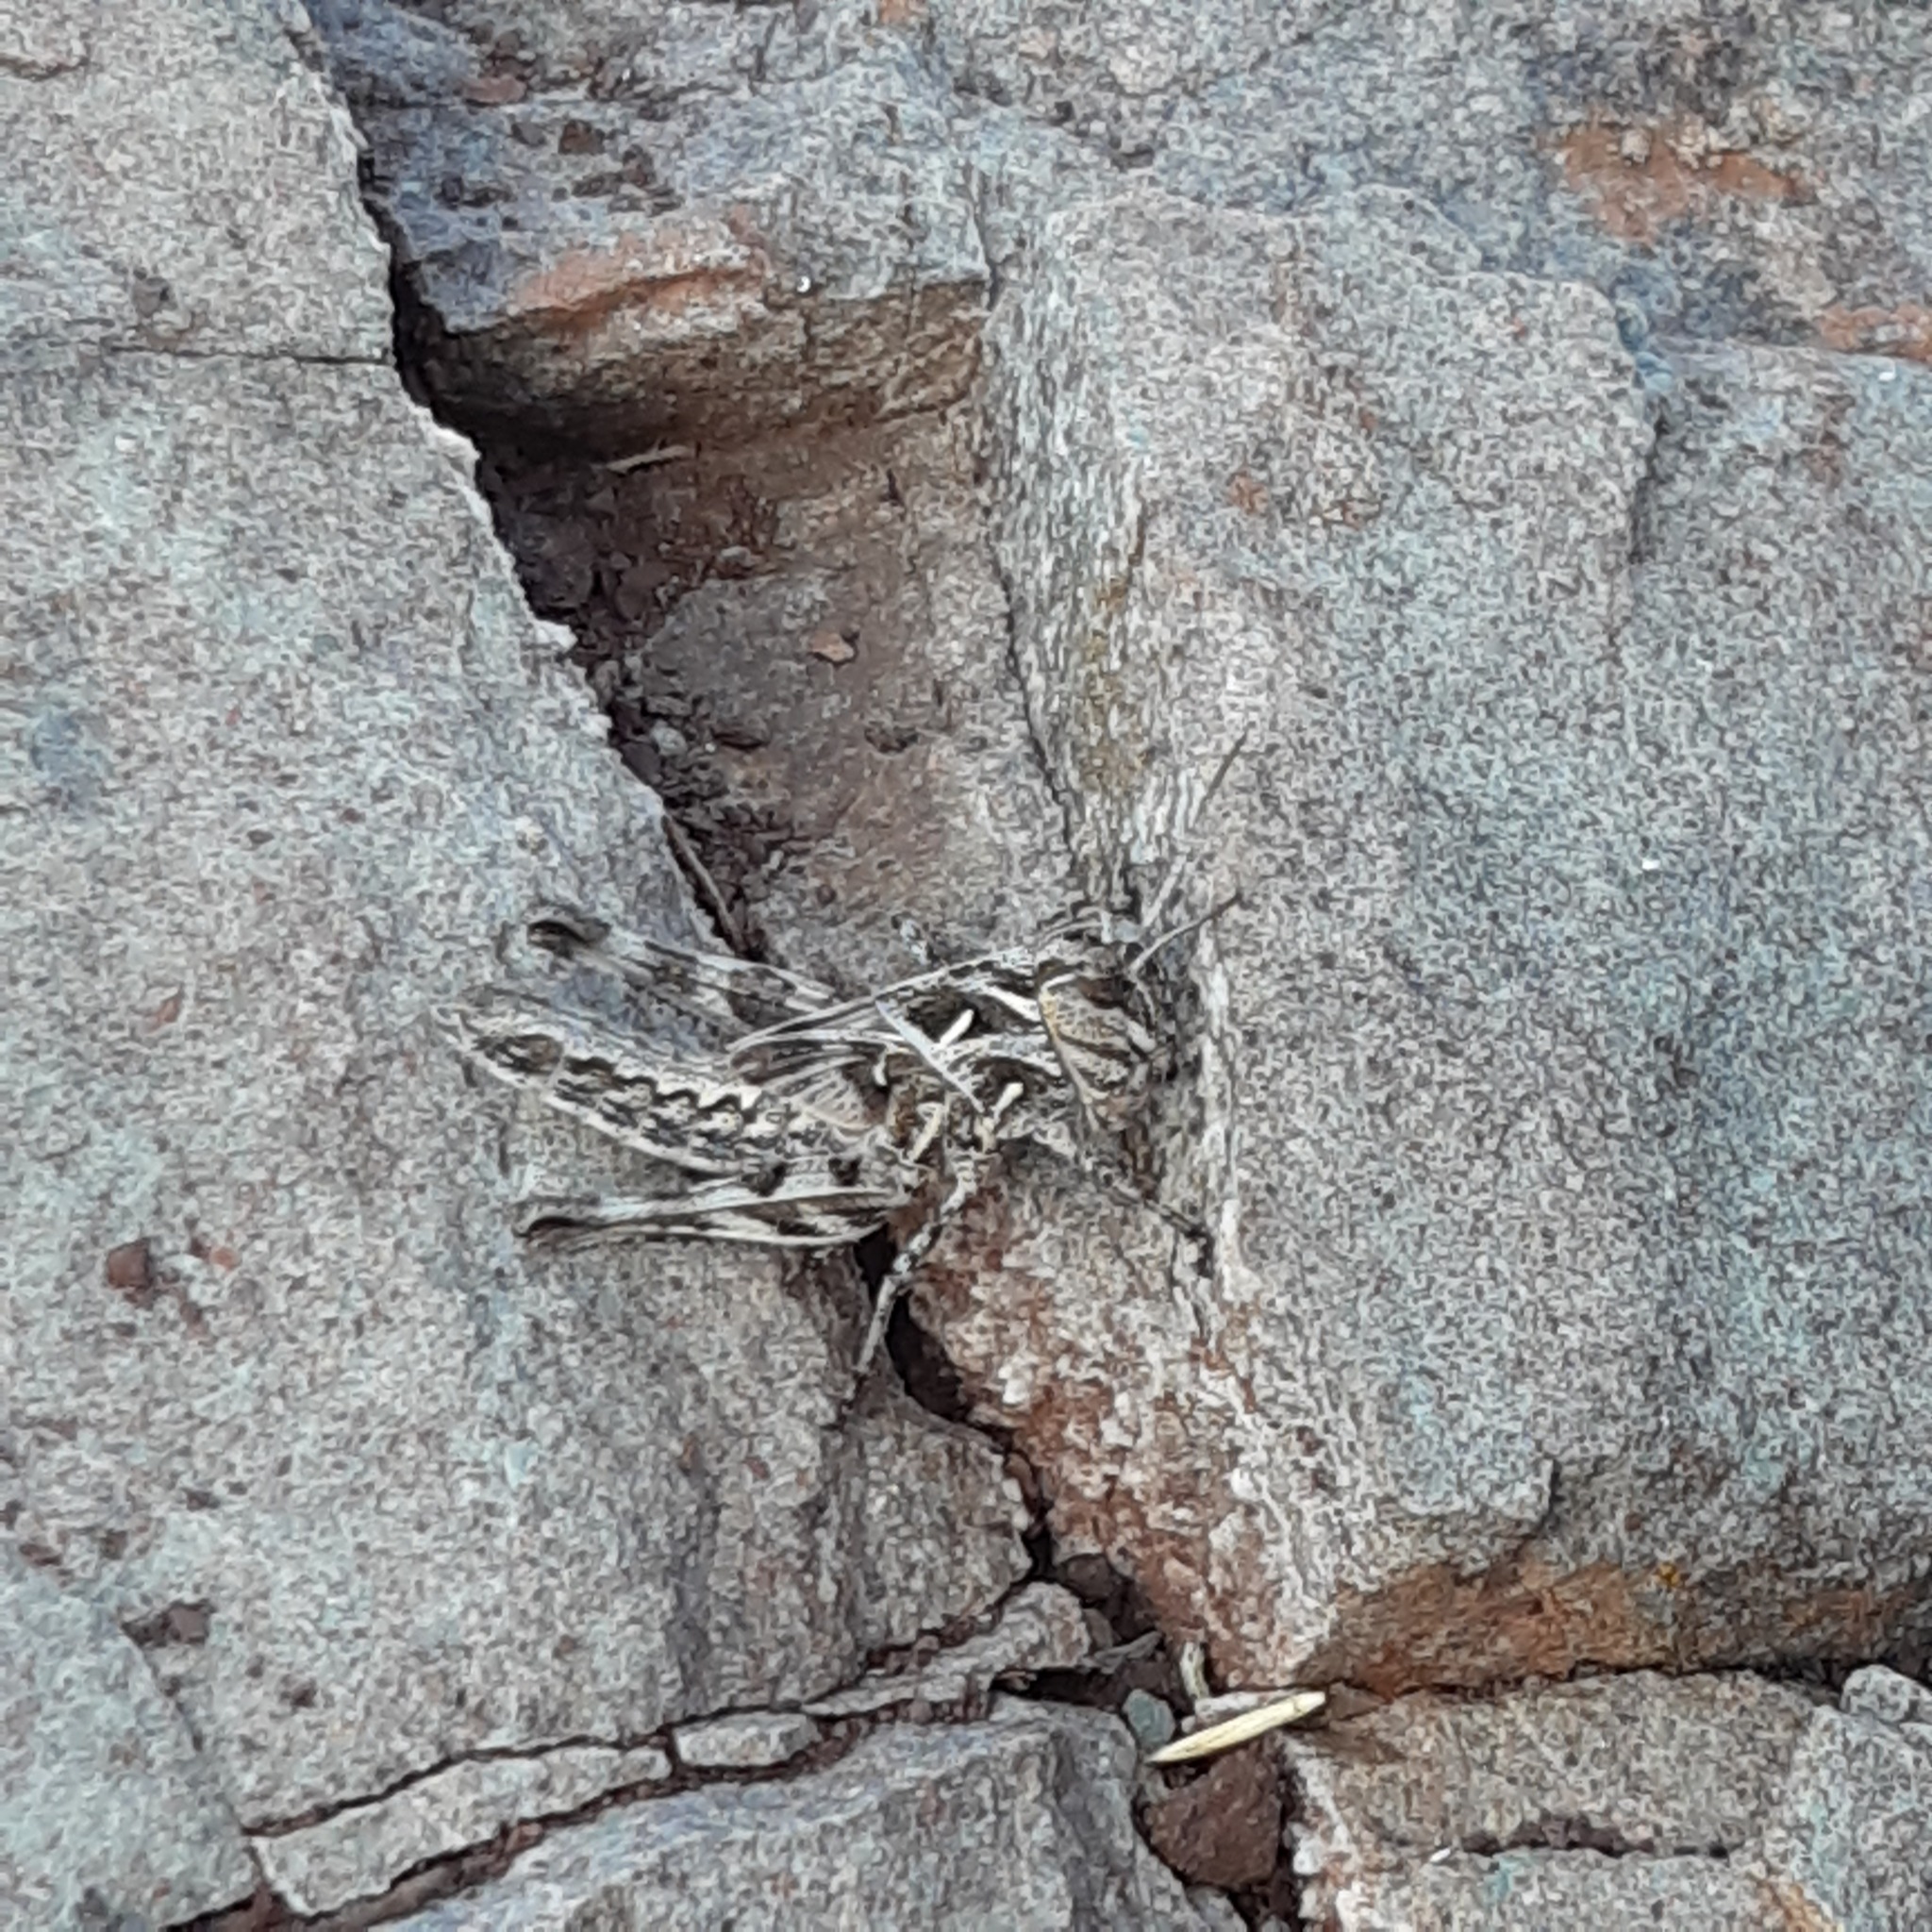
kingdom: Animalia
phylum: Arthropoda
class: Insecta
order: Orthoptera
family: Acrididae
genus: Oedaleus
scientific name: Oedaleus decorus
